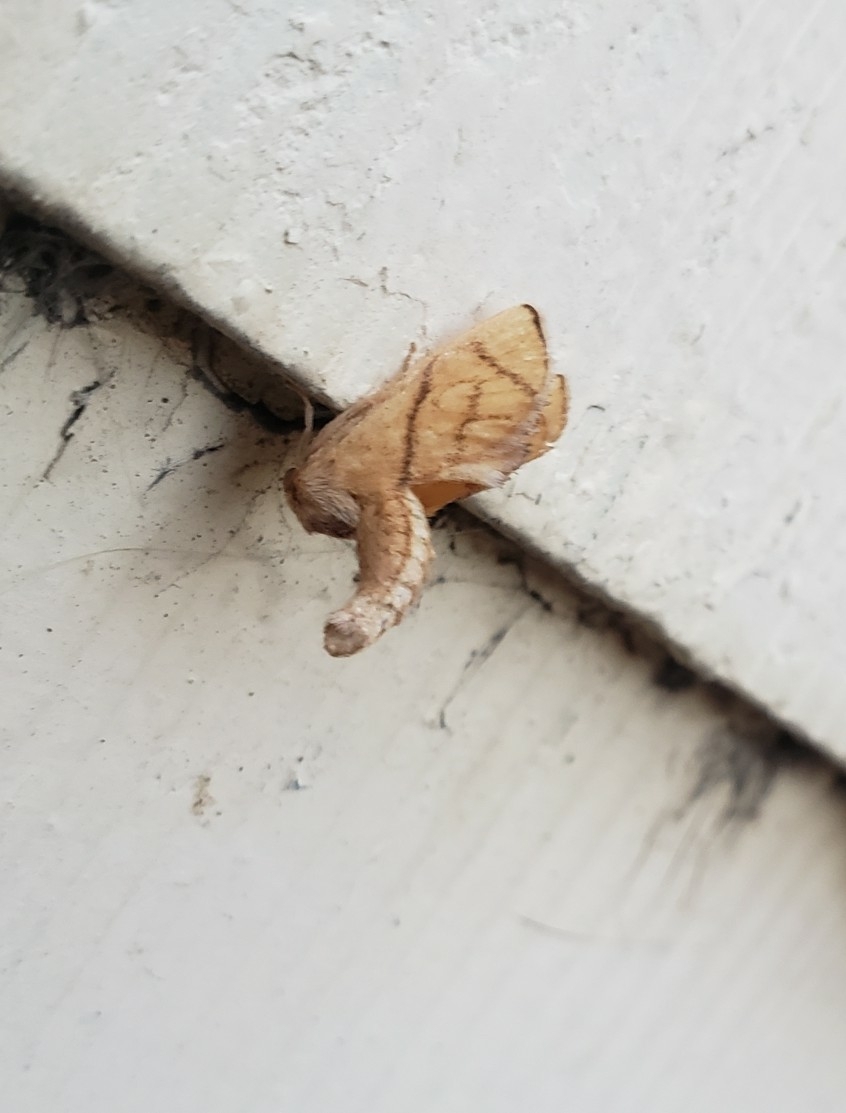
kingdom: Animalia
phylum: Arthropoda
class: Insecta
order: Lepidoptera
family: Limacodidae
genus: Apoda
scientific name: Apoda y-inversa
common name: Yellow-collared slug moth
